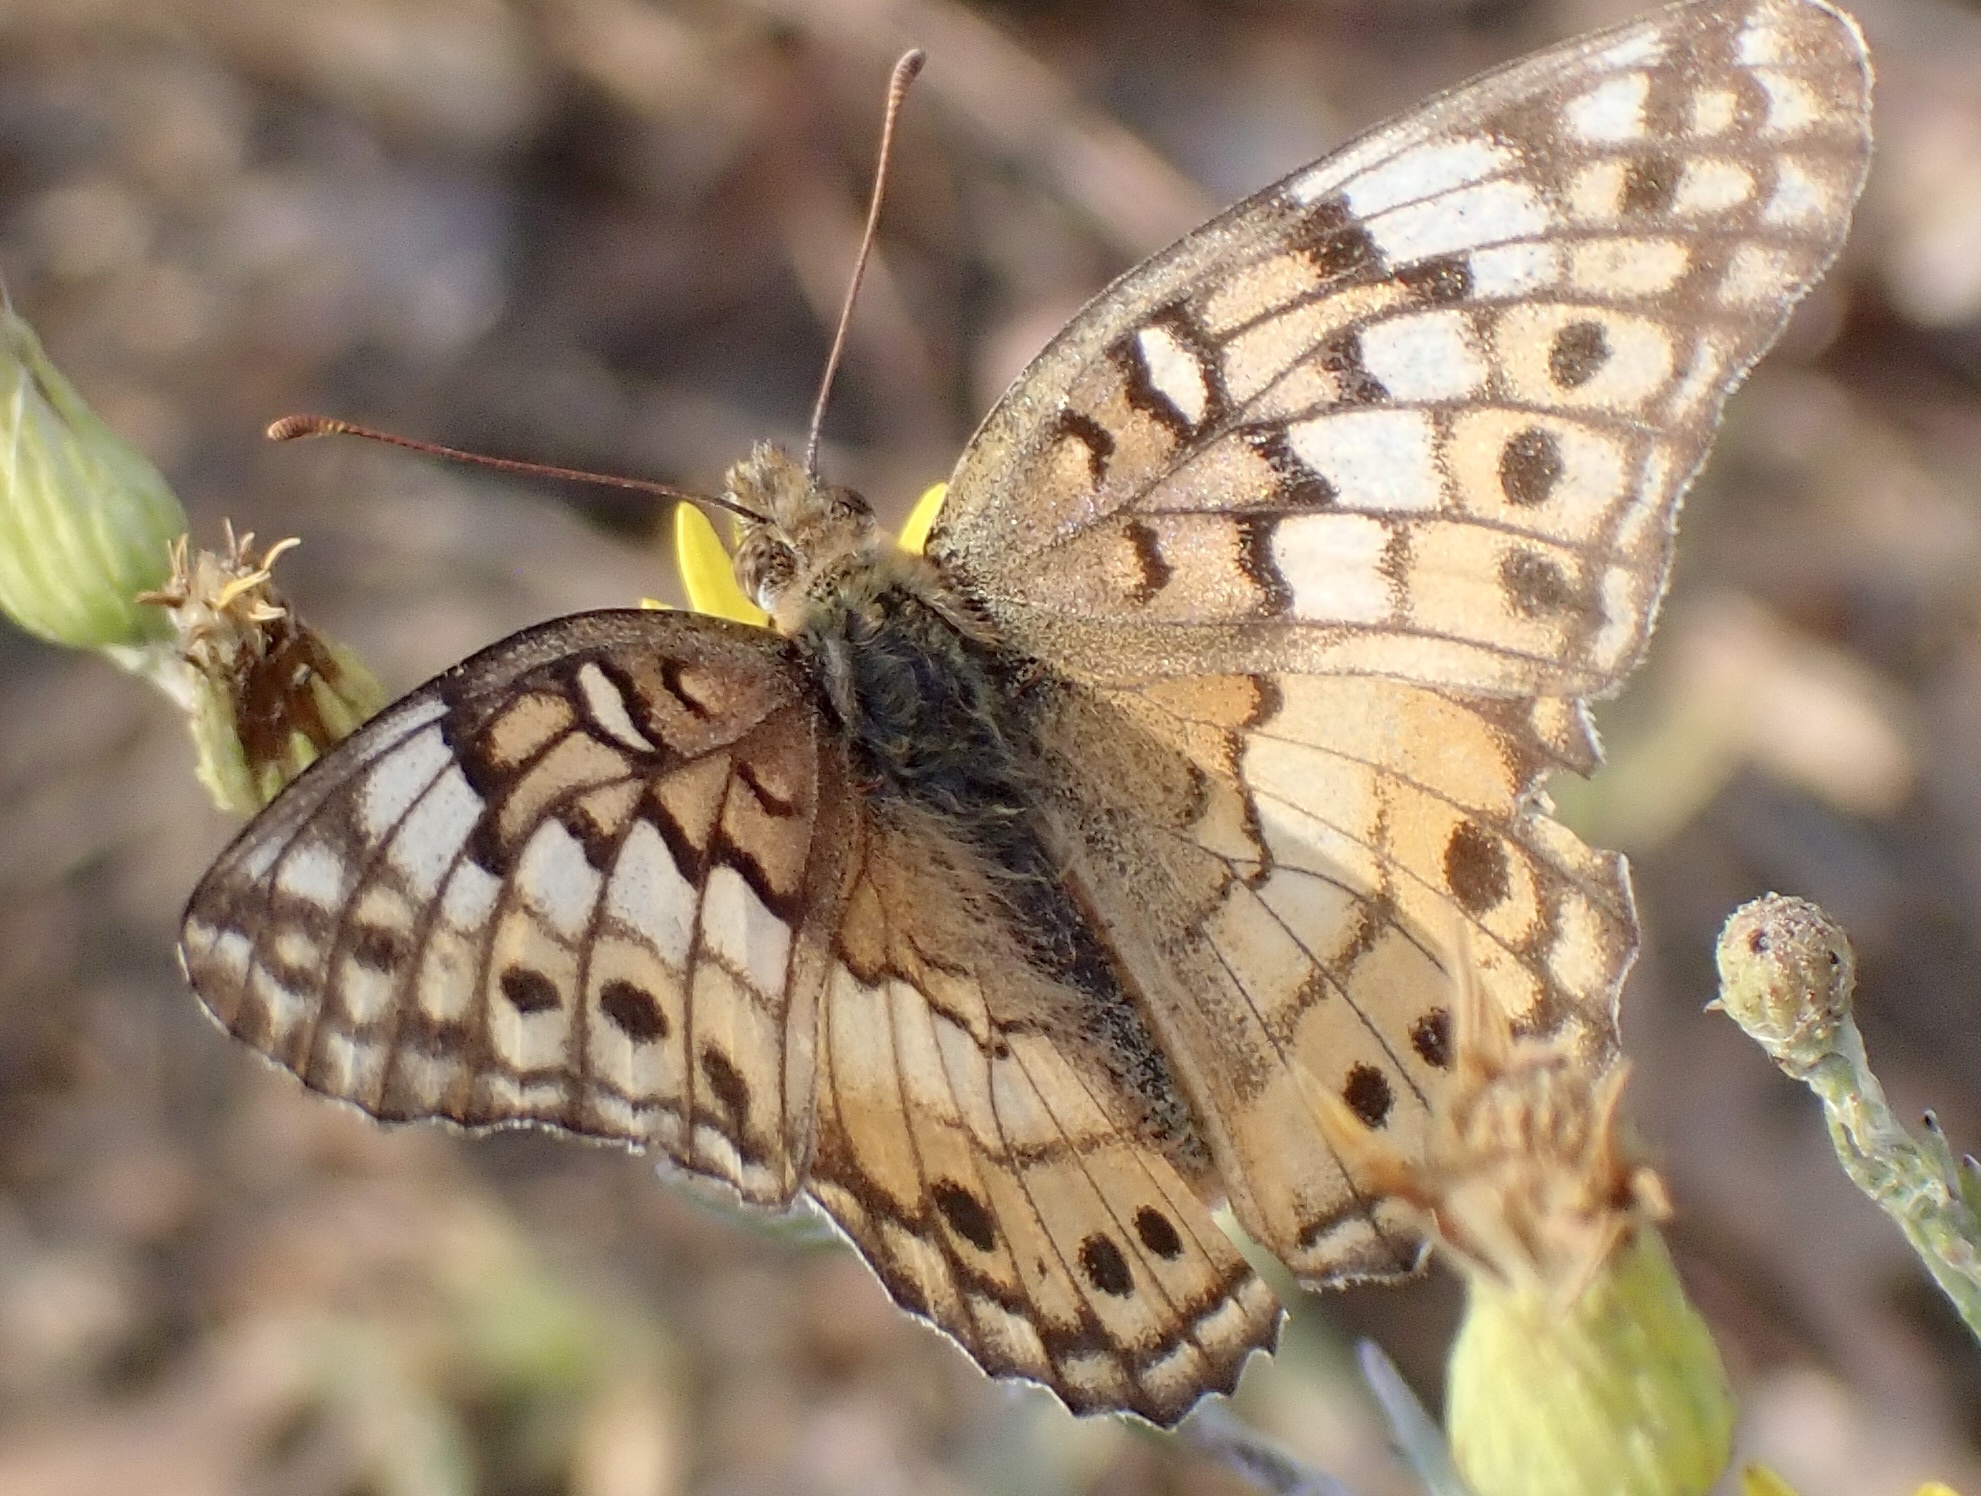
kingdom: Animalia
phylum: Arthropoda
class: Insecta
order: Lepidoptera
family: Nymphalidae
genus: Euptoieta
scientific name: Euptoieta claudia
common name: Variegated fritillary
